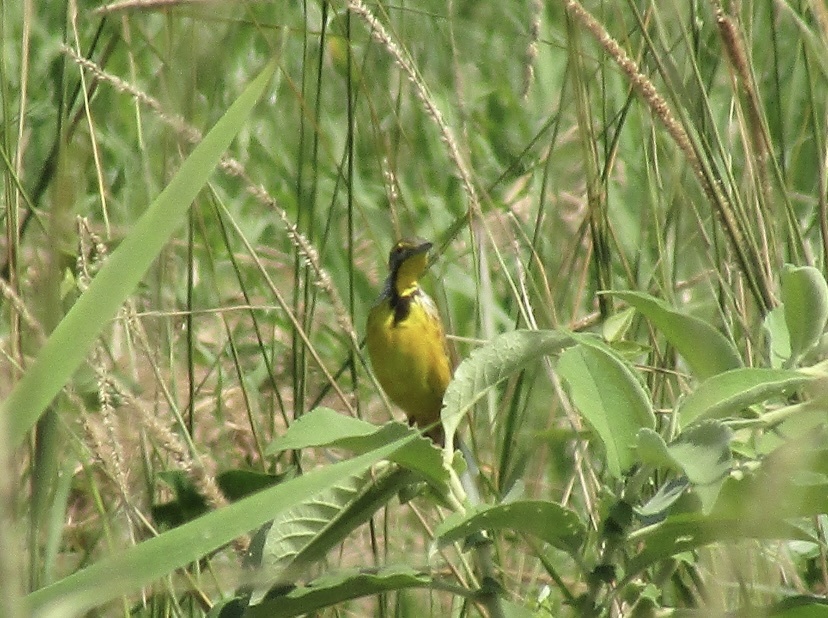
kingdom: Animalia
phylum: Chordata
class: Aves
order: Passeriformes
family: Motacillidae
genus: Macronyx
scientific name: Macronyx croceus
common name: Yellow-throated longclaw
